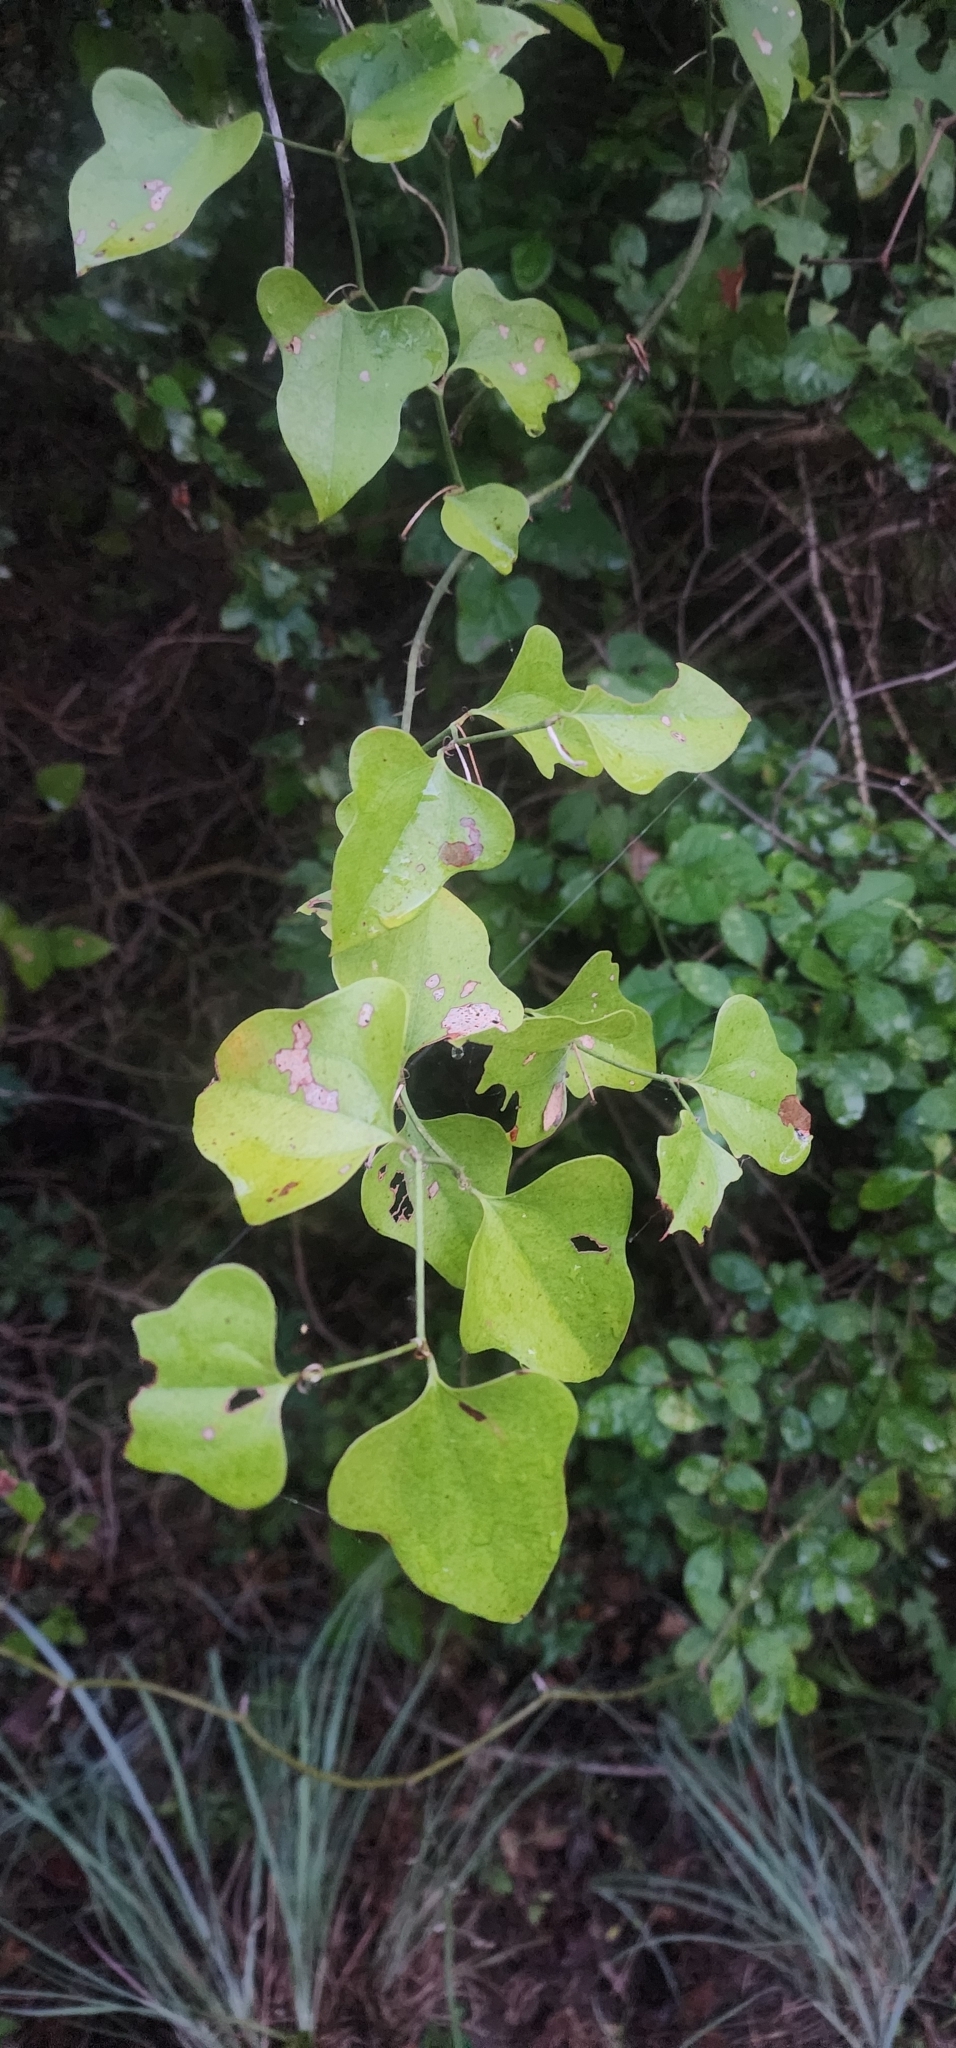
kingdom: Plantae
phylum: Tracheophyta
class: Liliopsida
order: Liliales
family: Smilacaceae
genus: Smilax
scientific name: Smilax bona-nox
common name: Catbrier
